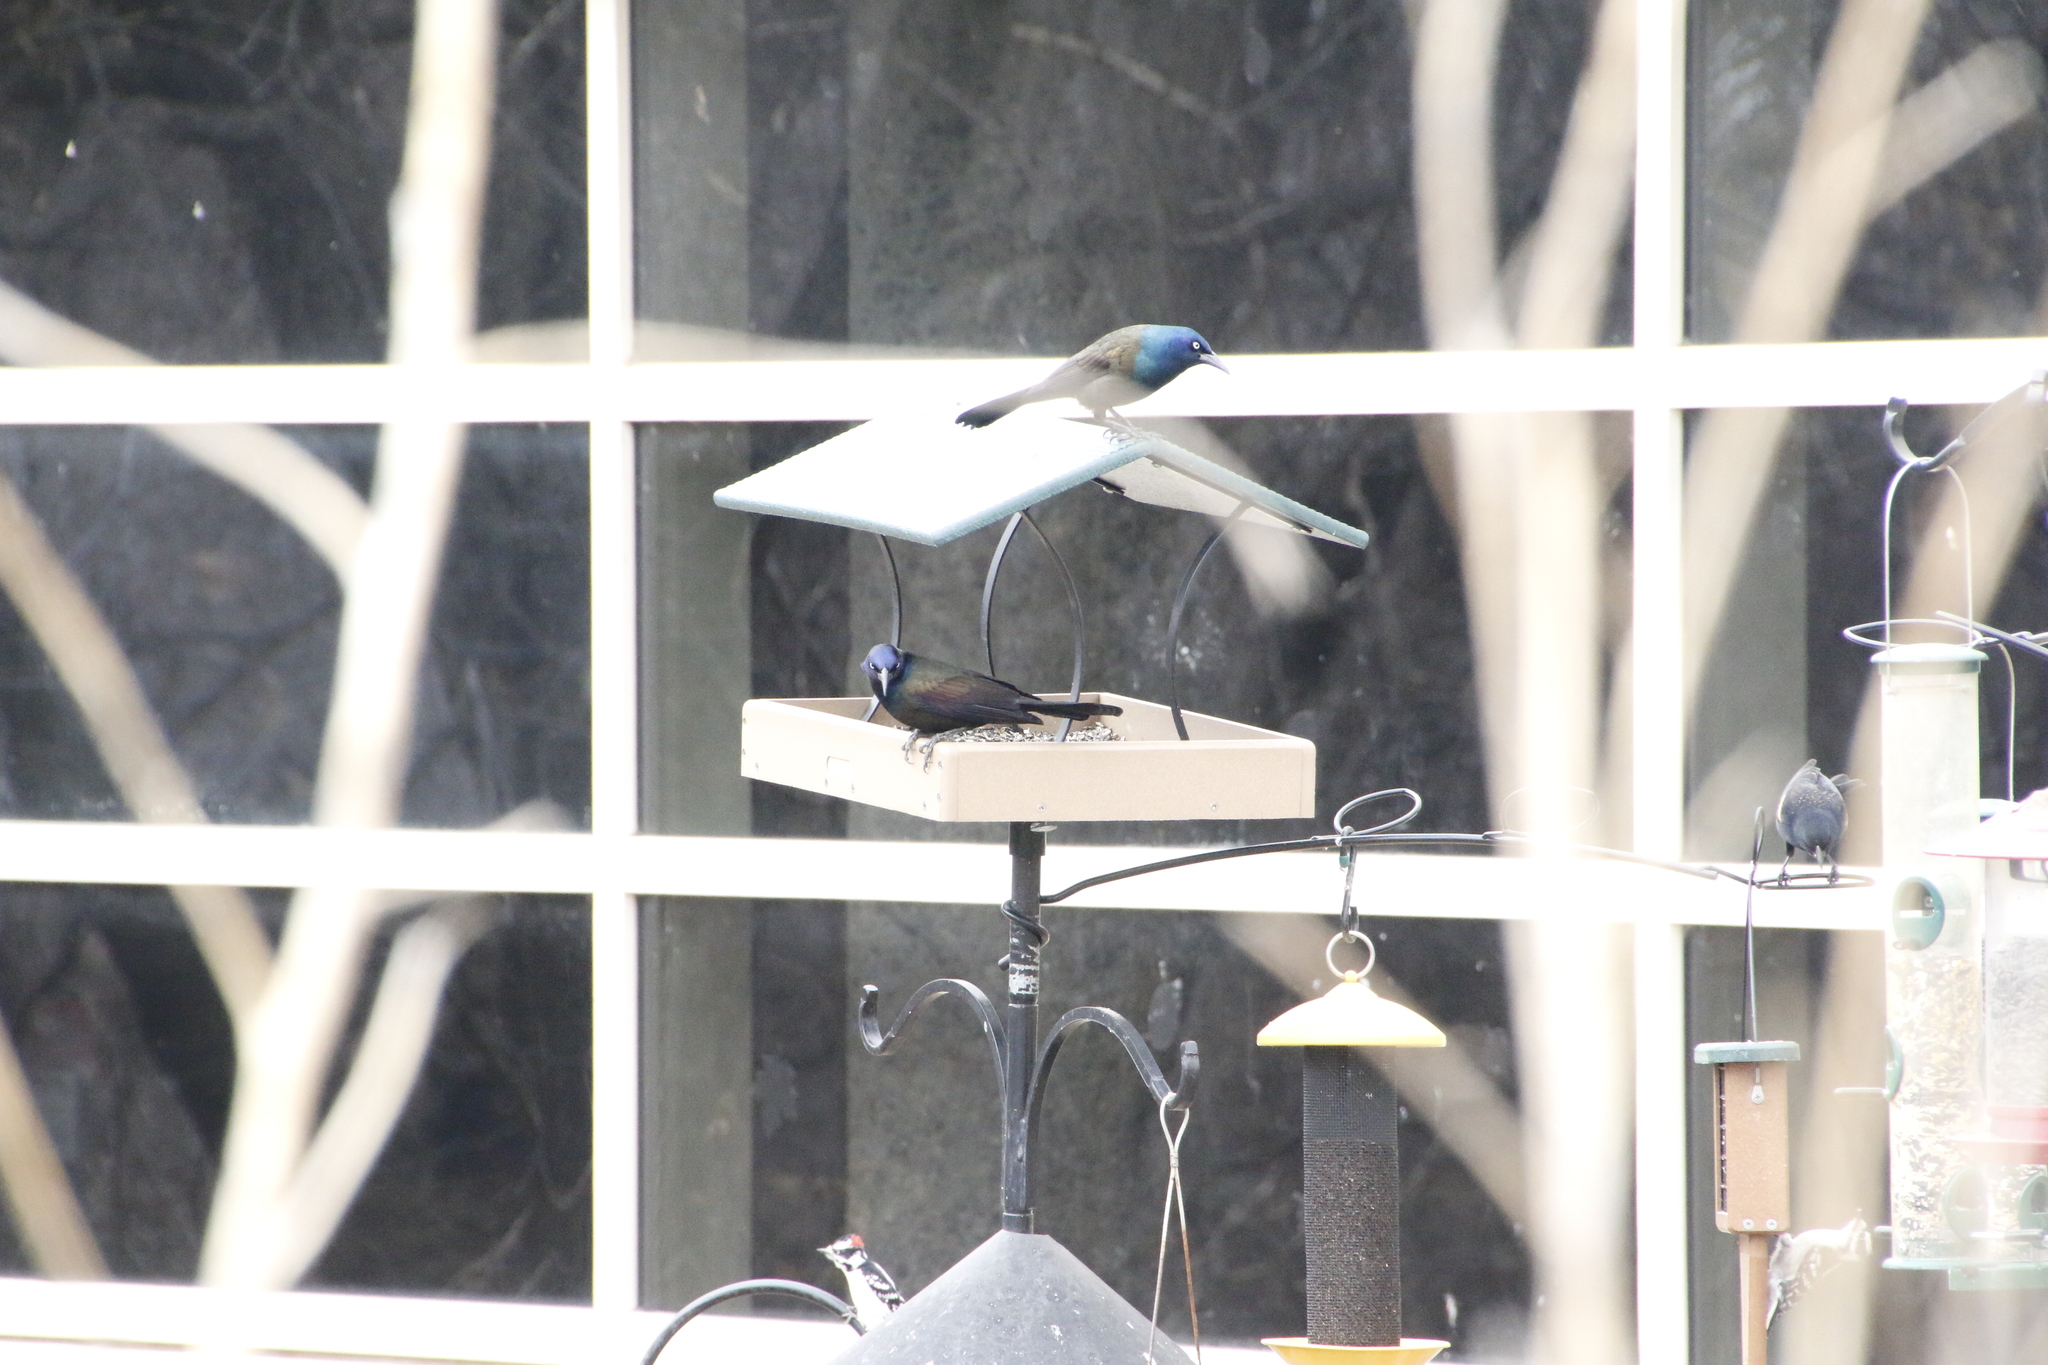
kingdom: Animalia
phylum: Chordata
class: Aves
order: Passeriformes
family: Icteridae
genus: Quiscalus
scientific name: Quiscalus quiscula
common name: Common grackle
